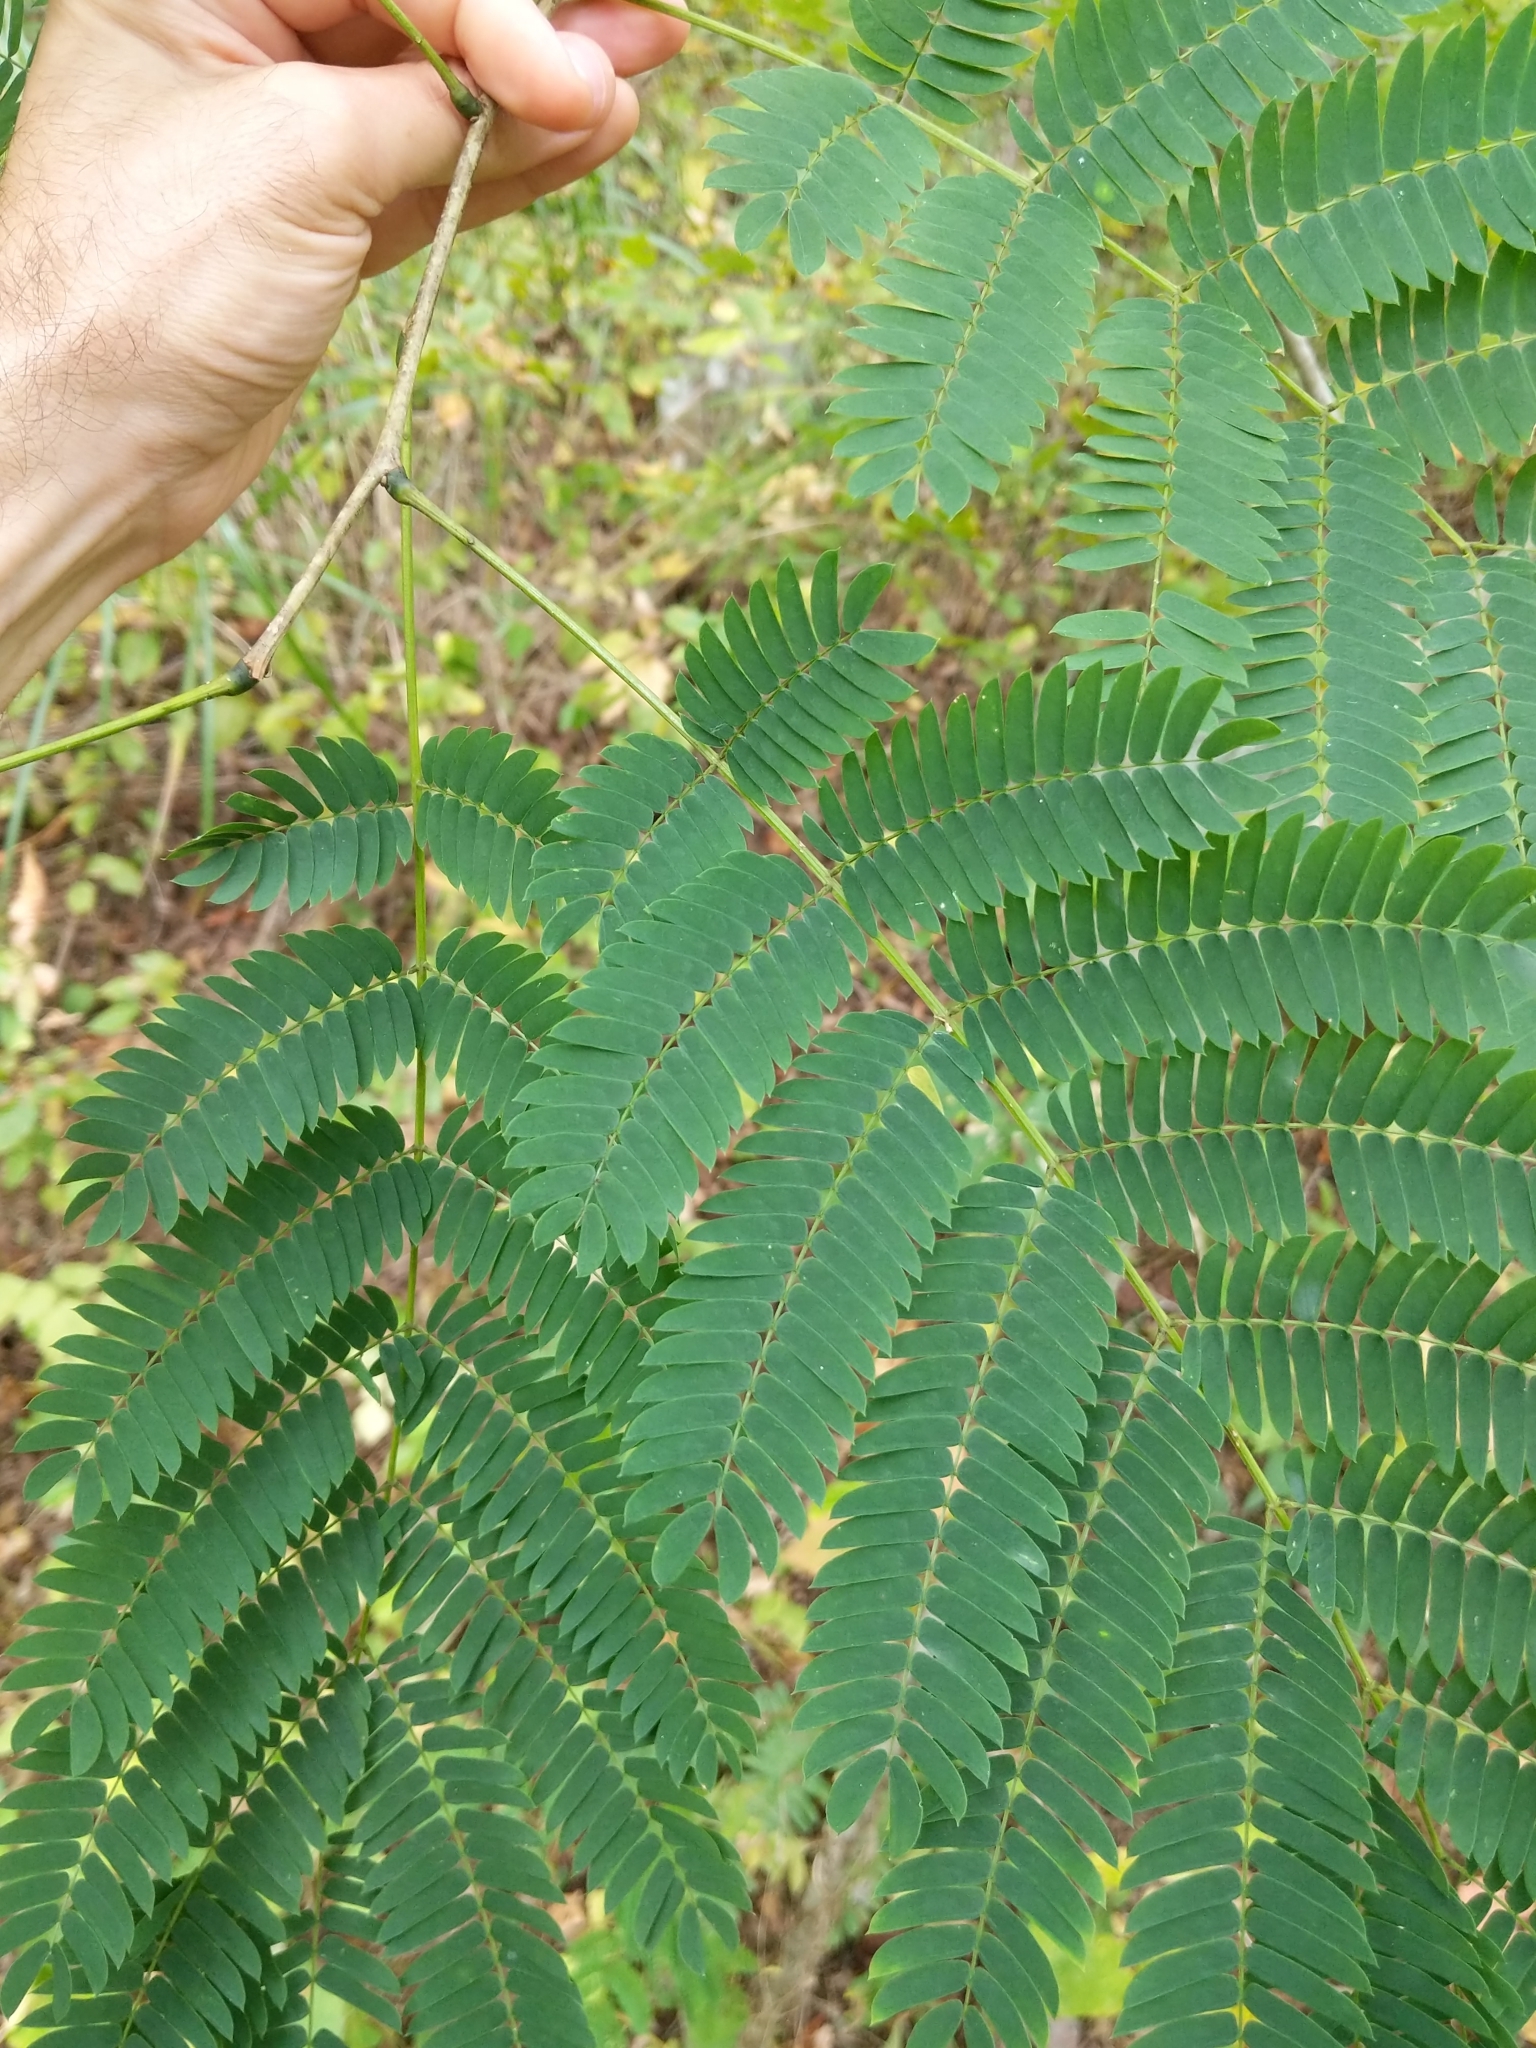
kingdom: Plantae
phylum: Tracheophyta
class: Magnoliopsida
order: Fabales
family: Fabaceae
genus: Albizia
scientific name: Albizia julibrissin
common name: Silktree
